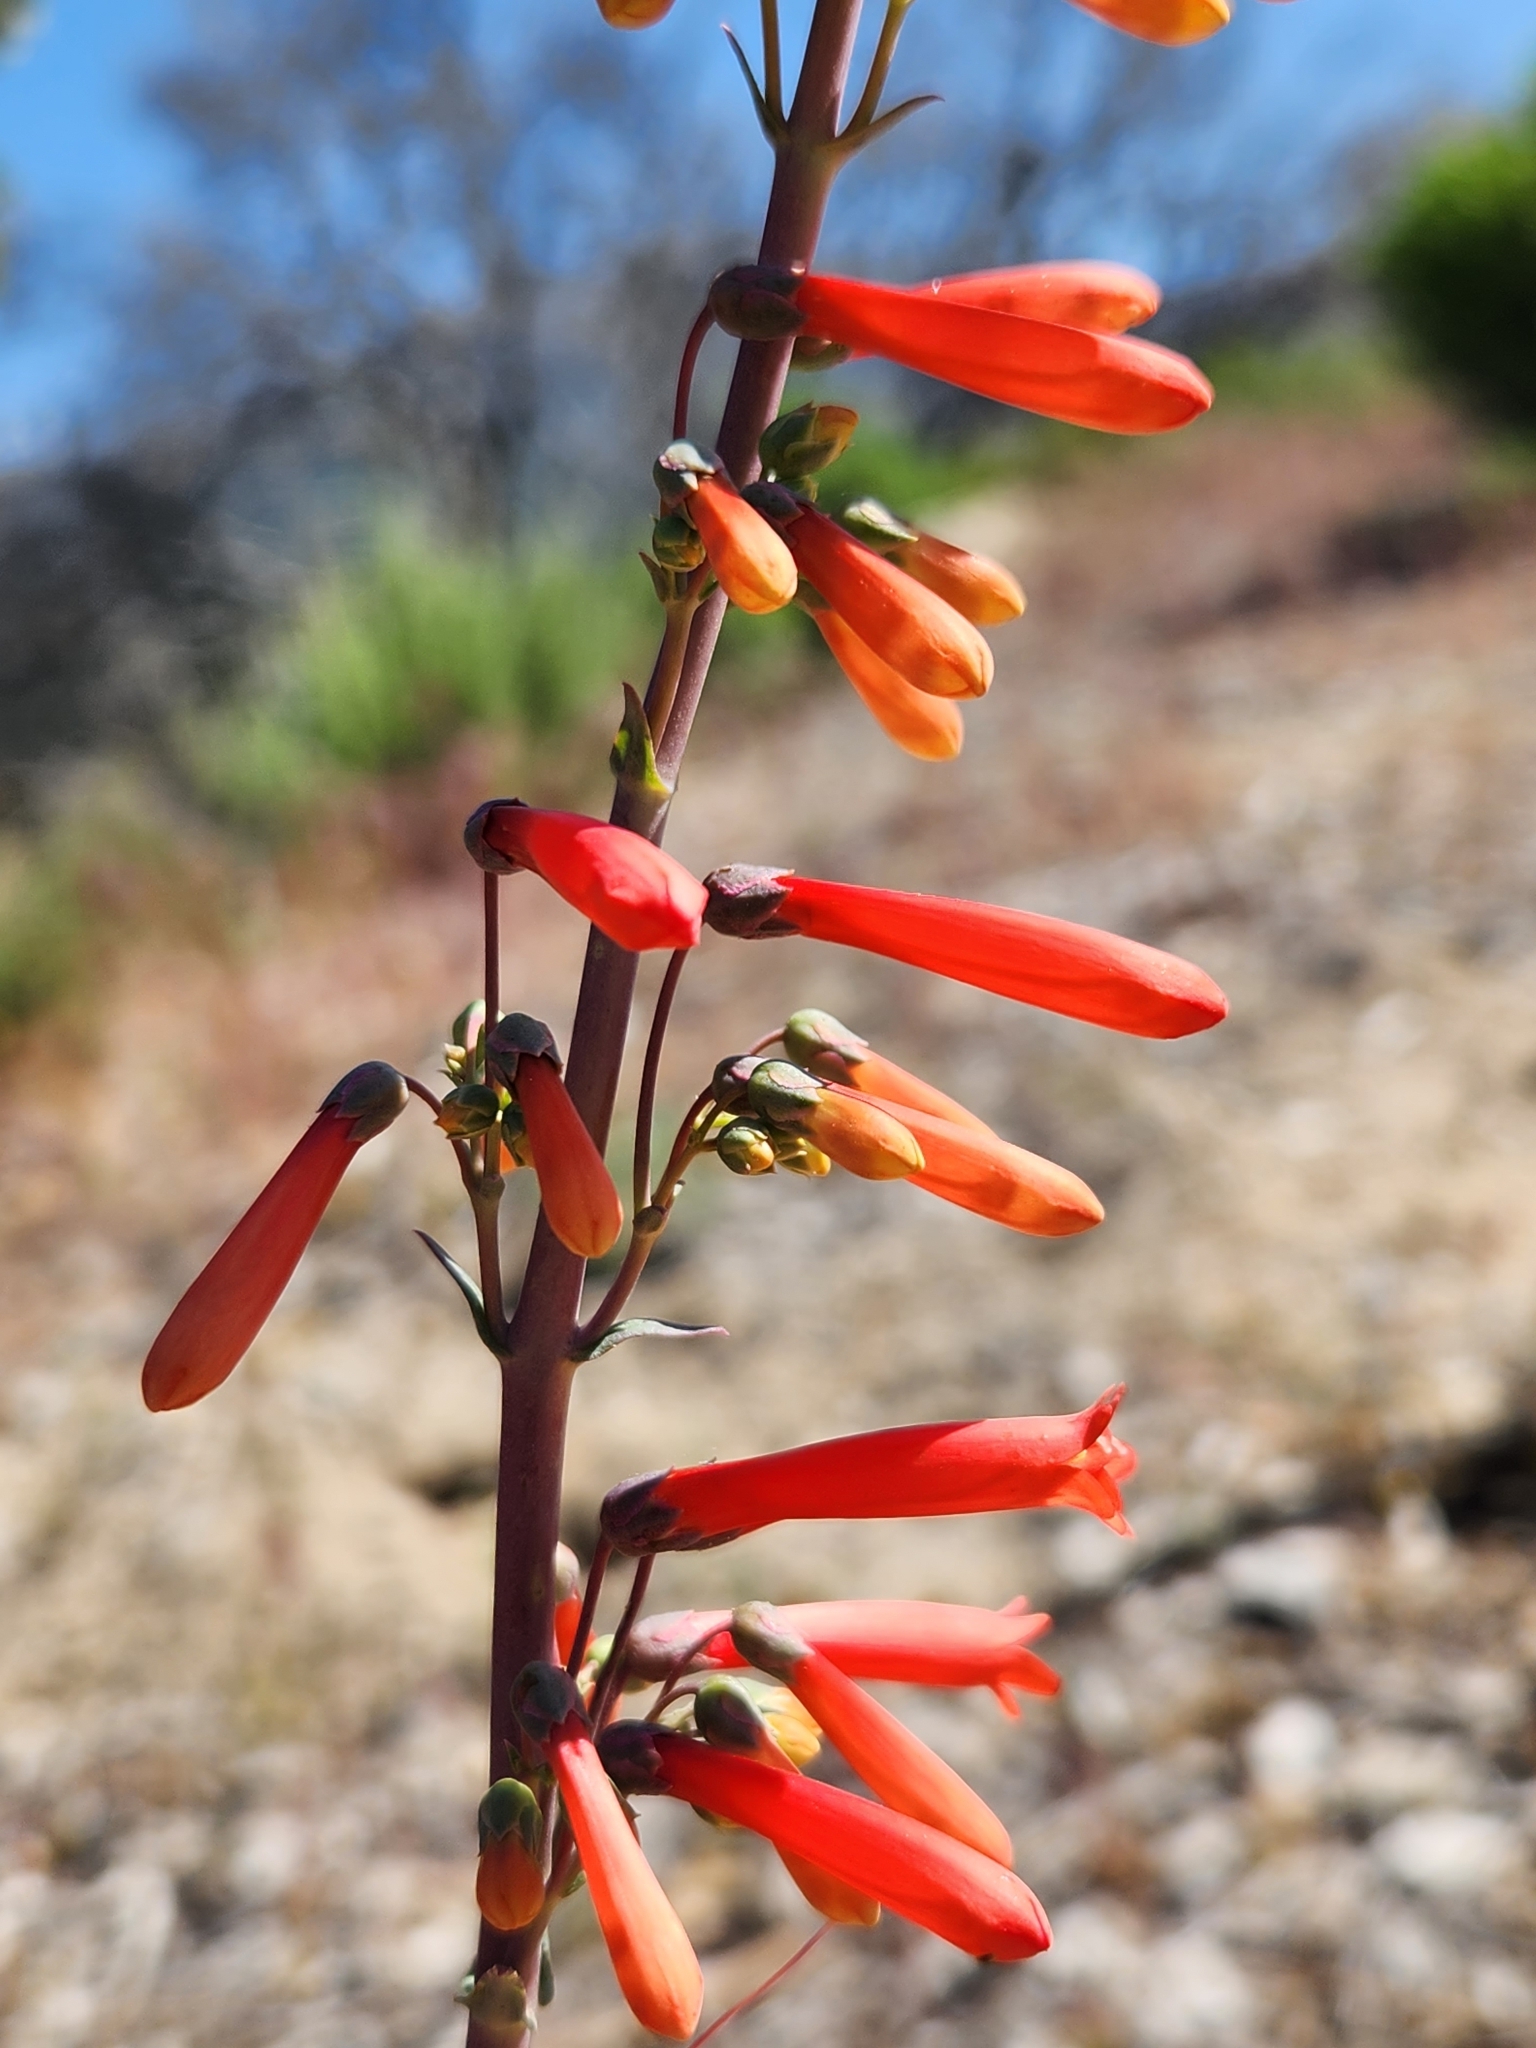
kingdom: Plantae
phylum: Tracheophyta
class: Magnoliopsida
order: Lamiales
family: Plantaginaceae
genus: Penstemon
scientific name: Penstemon centranthifolius
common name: Scarlet bugler
